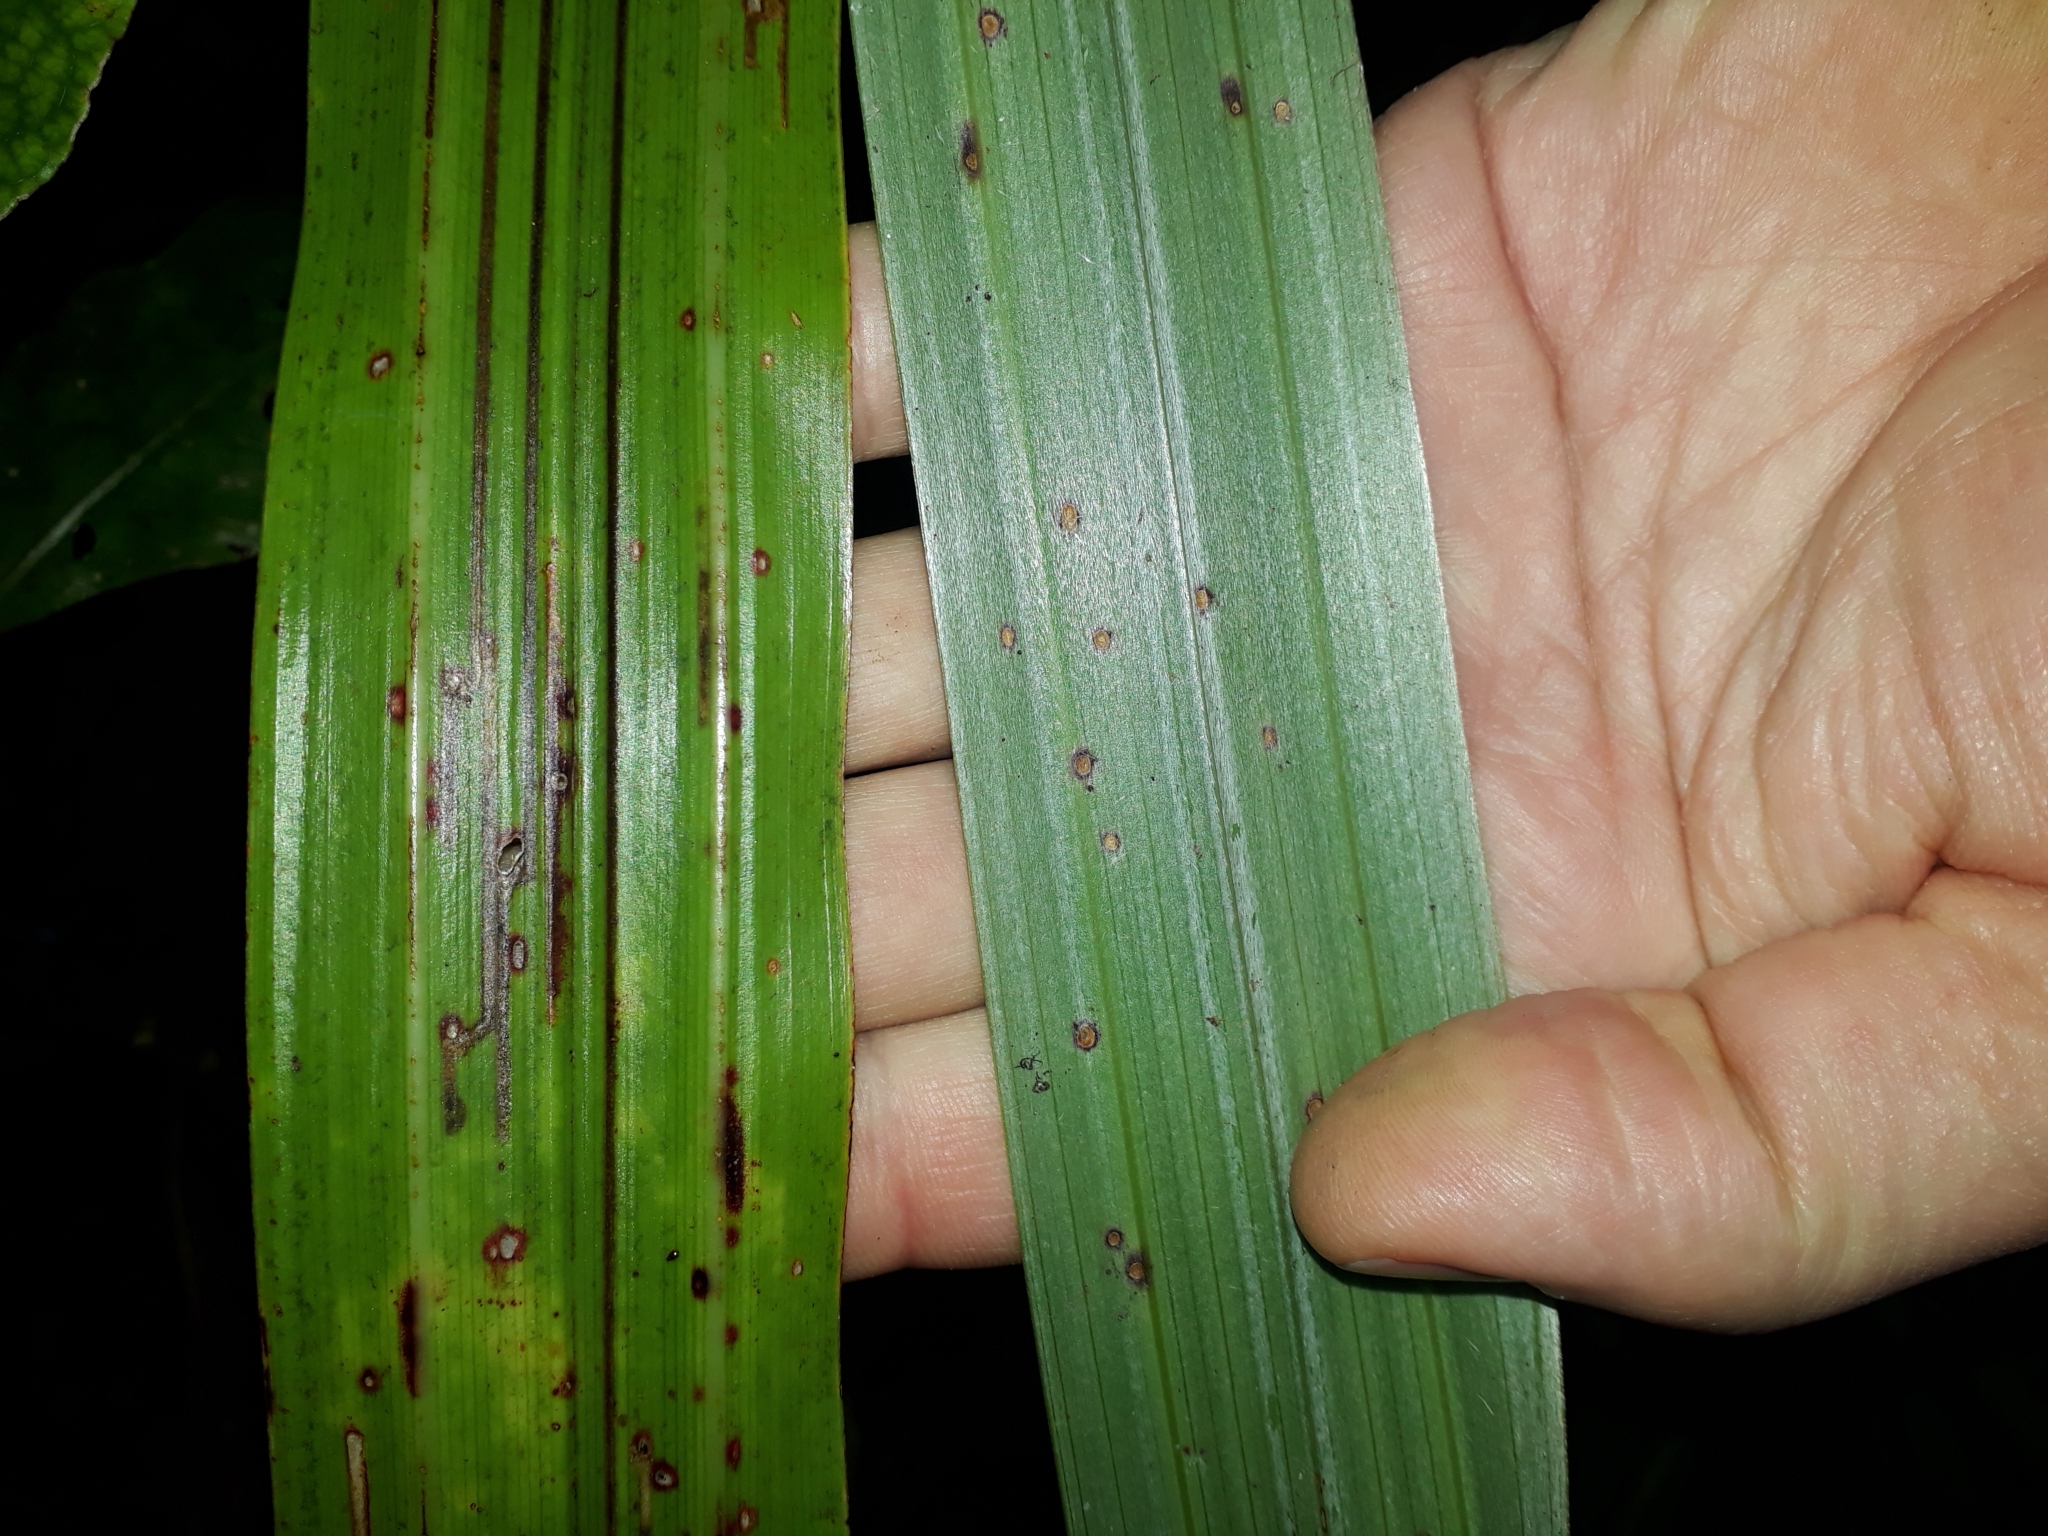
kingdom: Plantae
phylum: Tracheophyta
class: Liliopsida
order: Asparagales
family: Asteliaceae
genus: Astelia
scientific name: Astelia fragrans
